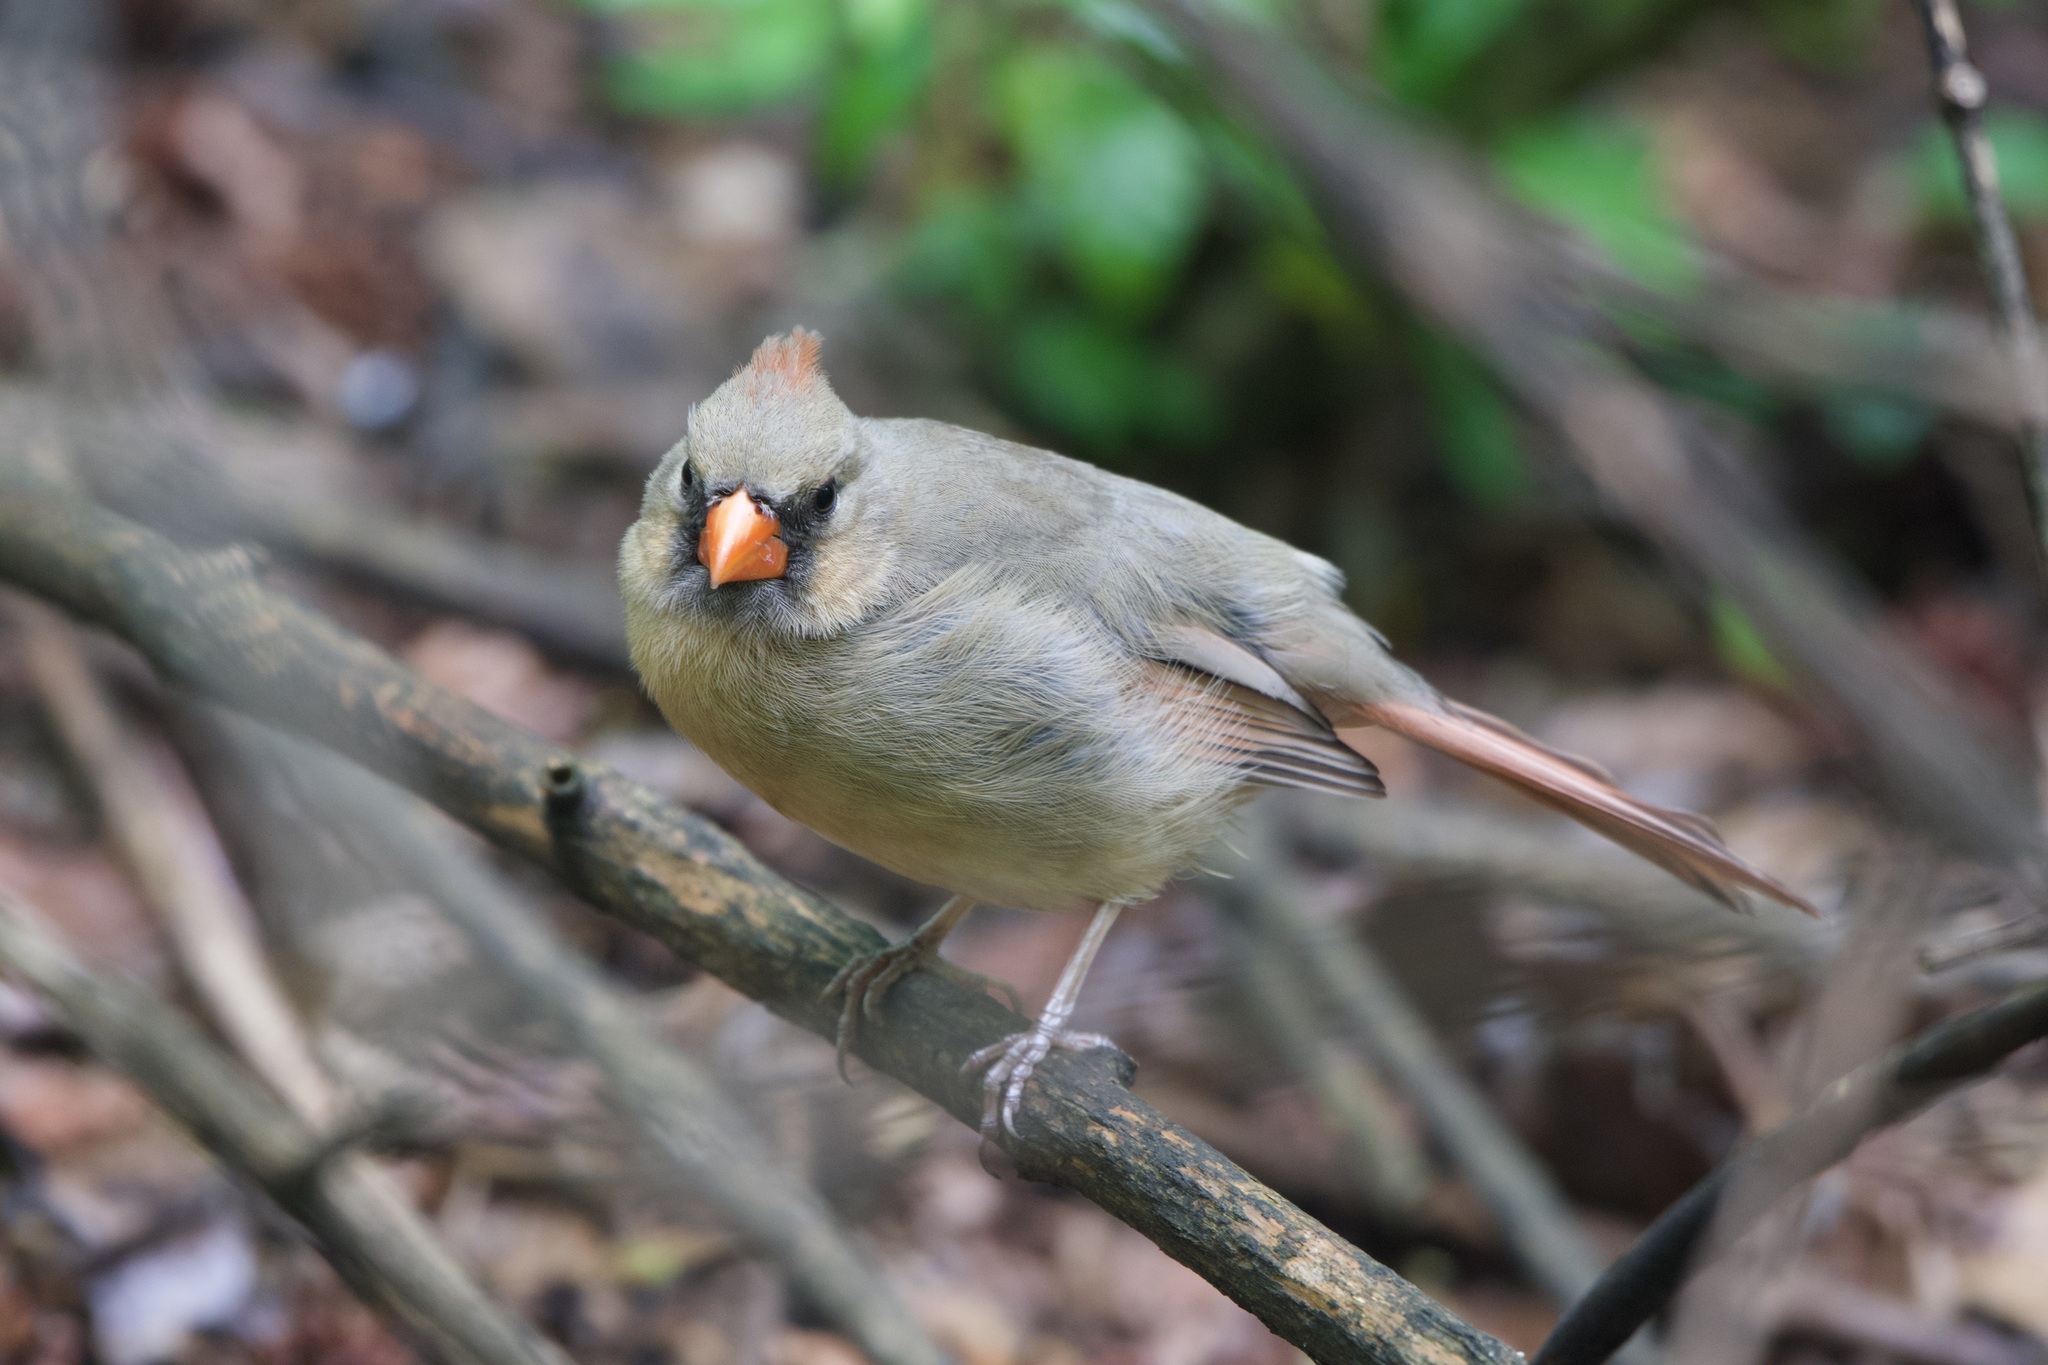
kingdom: Animalia
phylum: Chordata
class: Aves
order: Passeriformes
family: Cardinalidae
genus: Cardinalis
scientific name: Cardinalis cardinalis
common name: Northern cardinal
